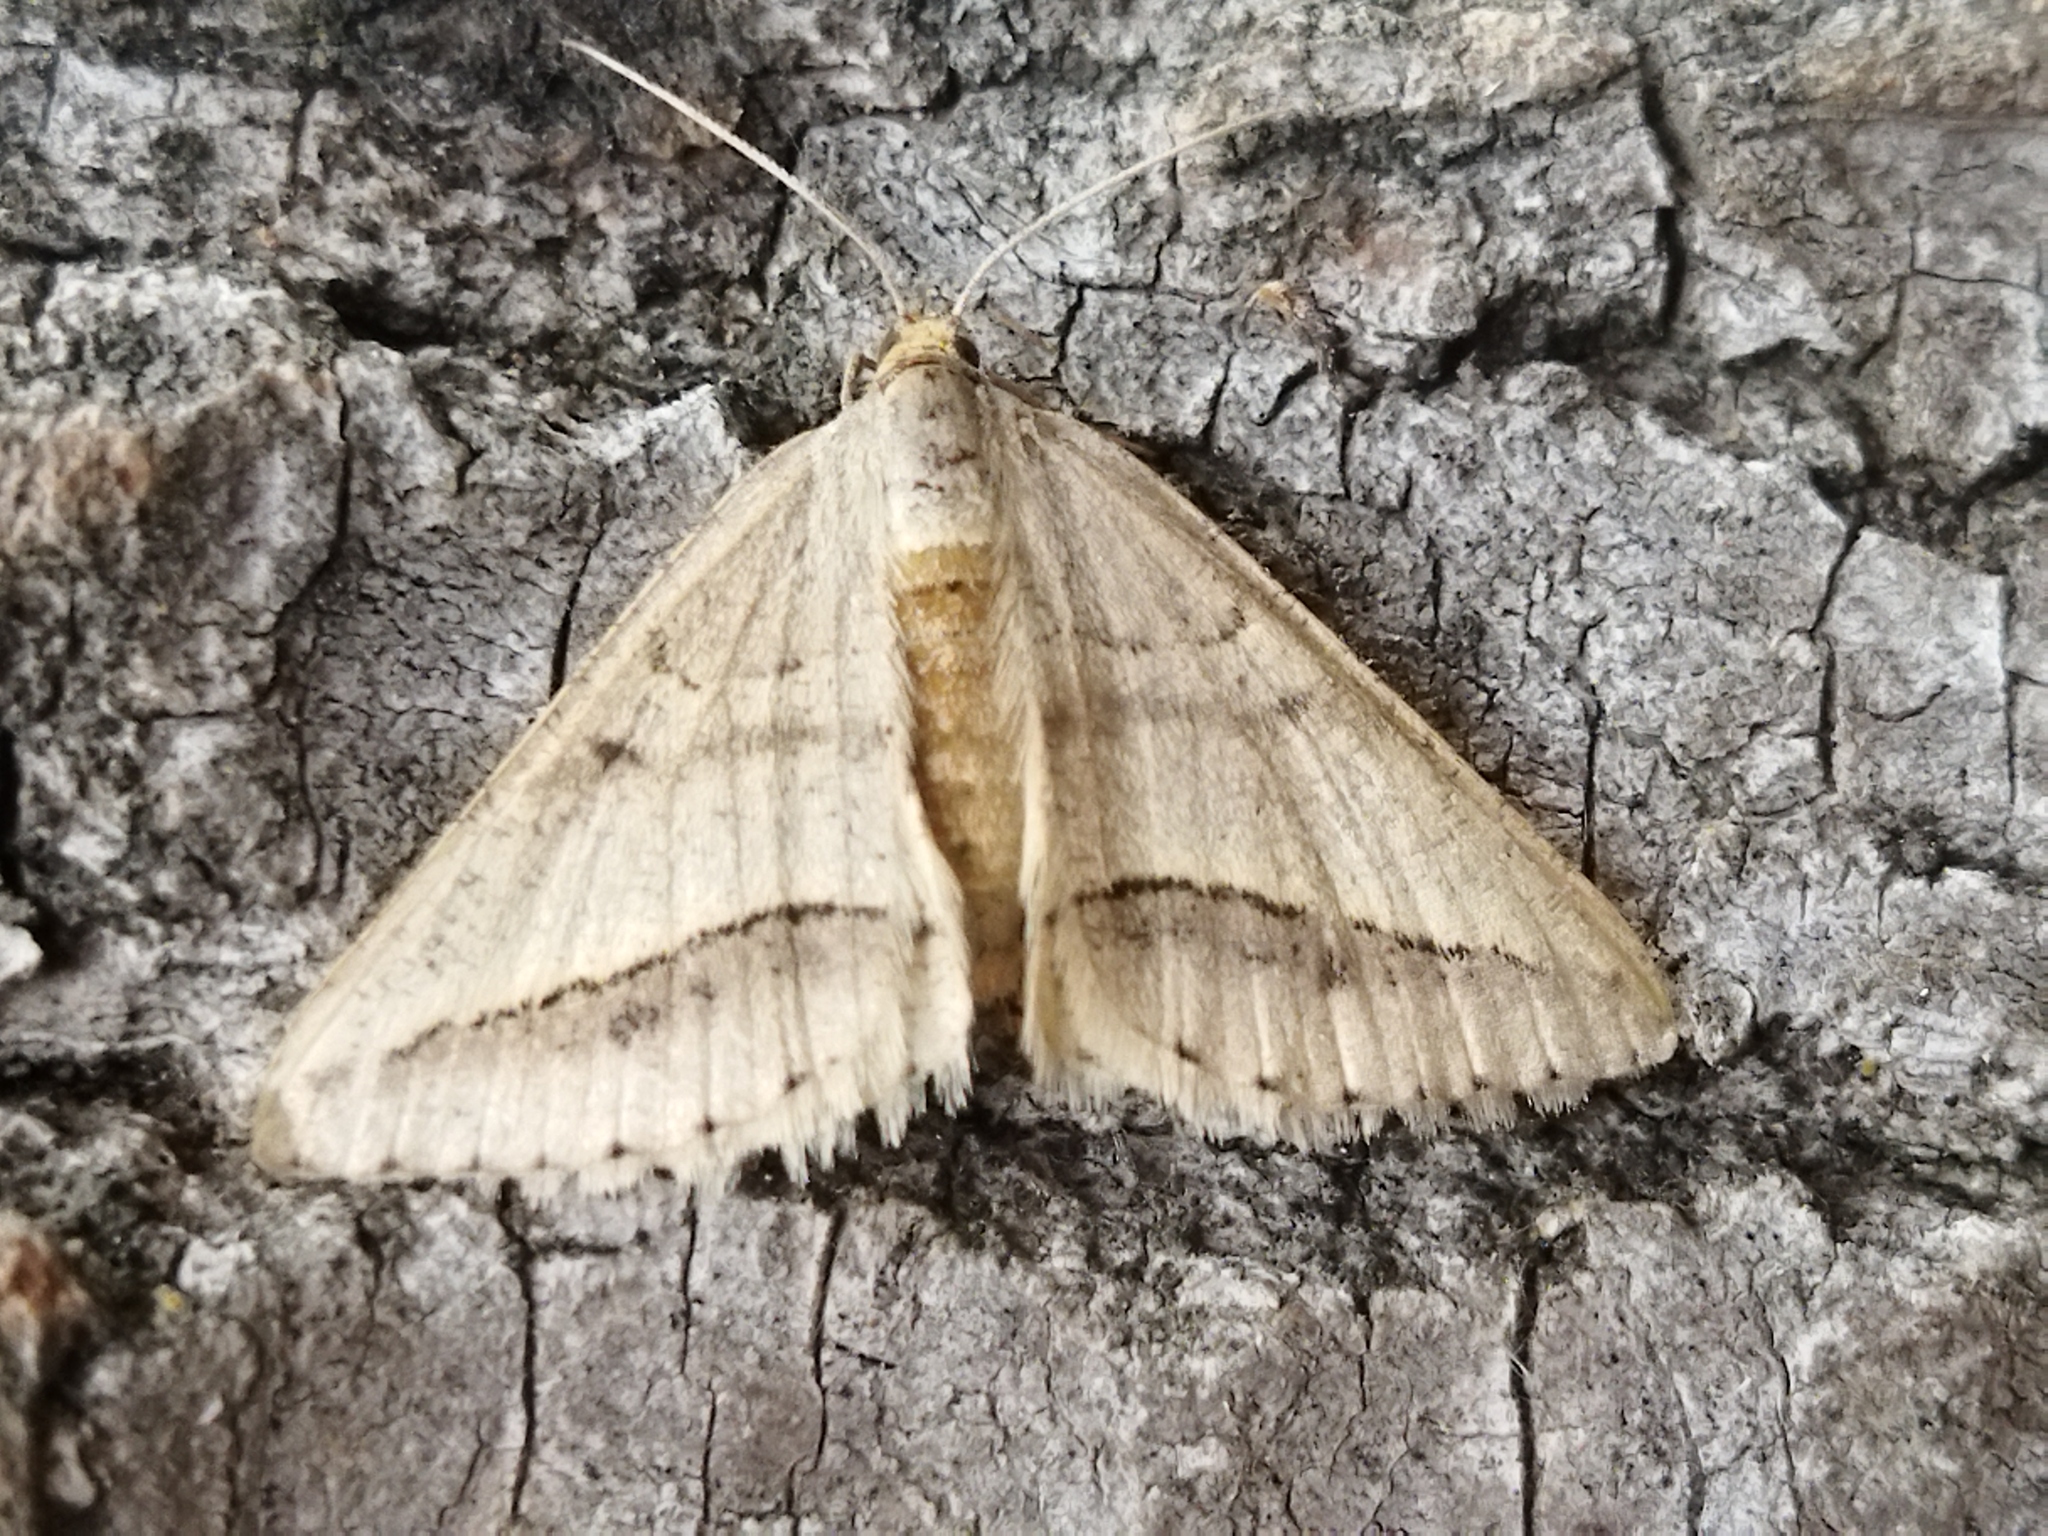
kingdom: Animalia
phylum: Arthropoda
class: Insecta
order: Lepidoptera
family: Geometridae
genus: Tephrina
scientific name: Tephrina arenacearia
